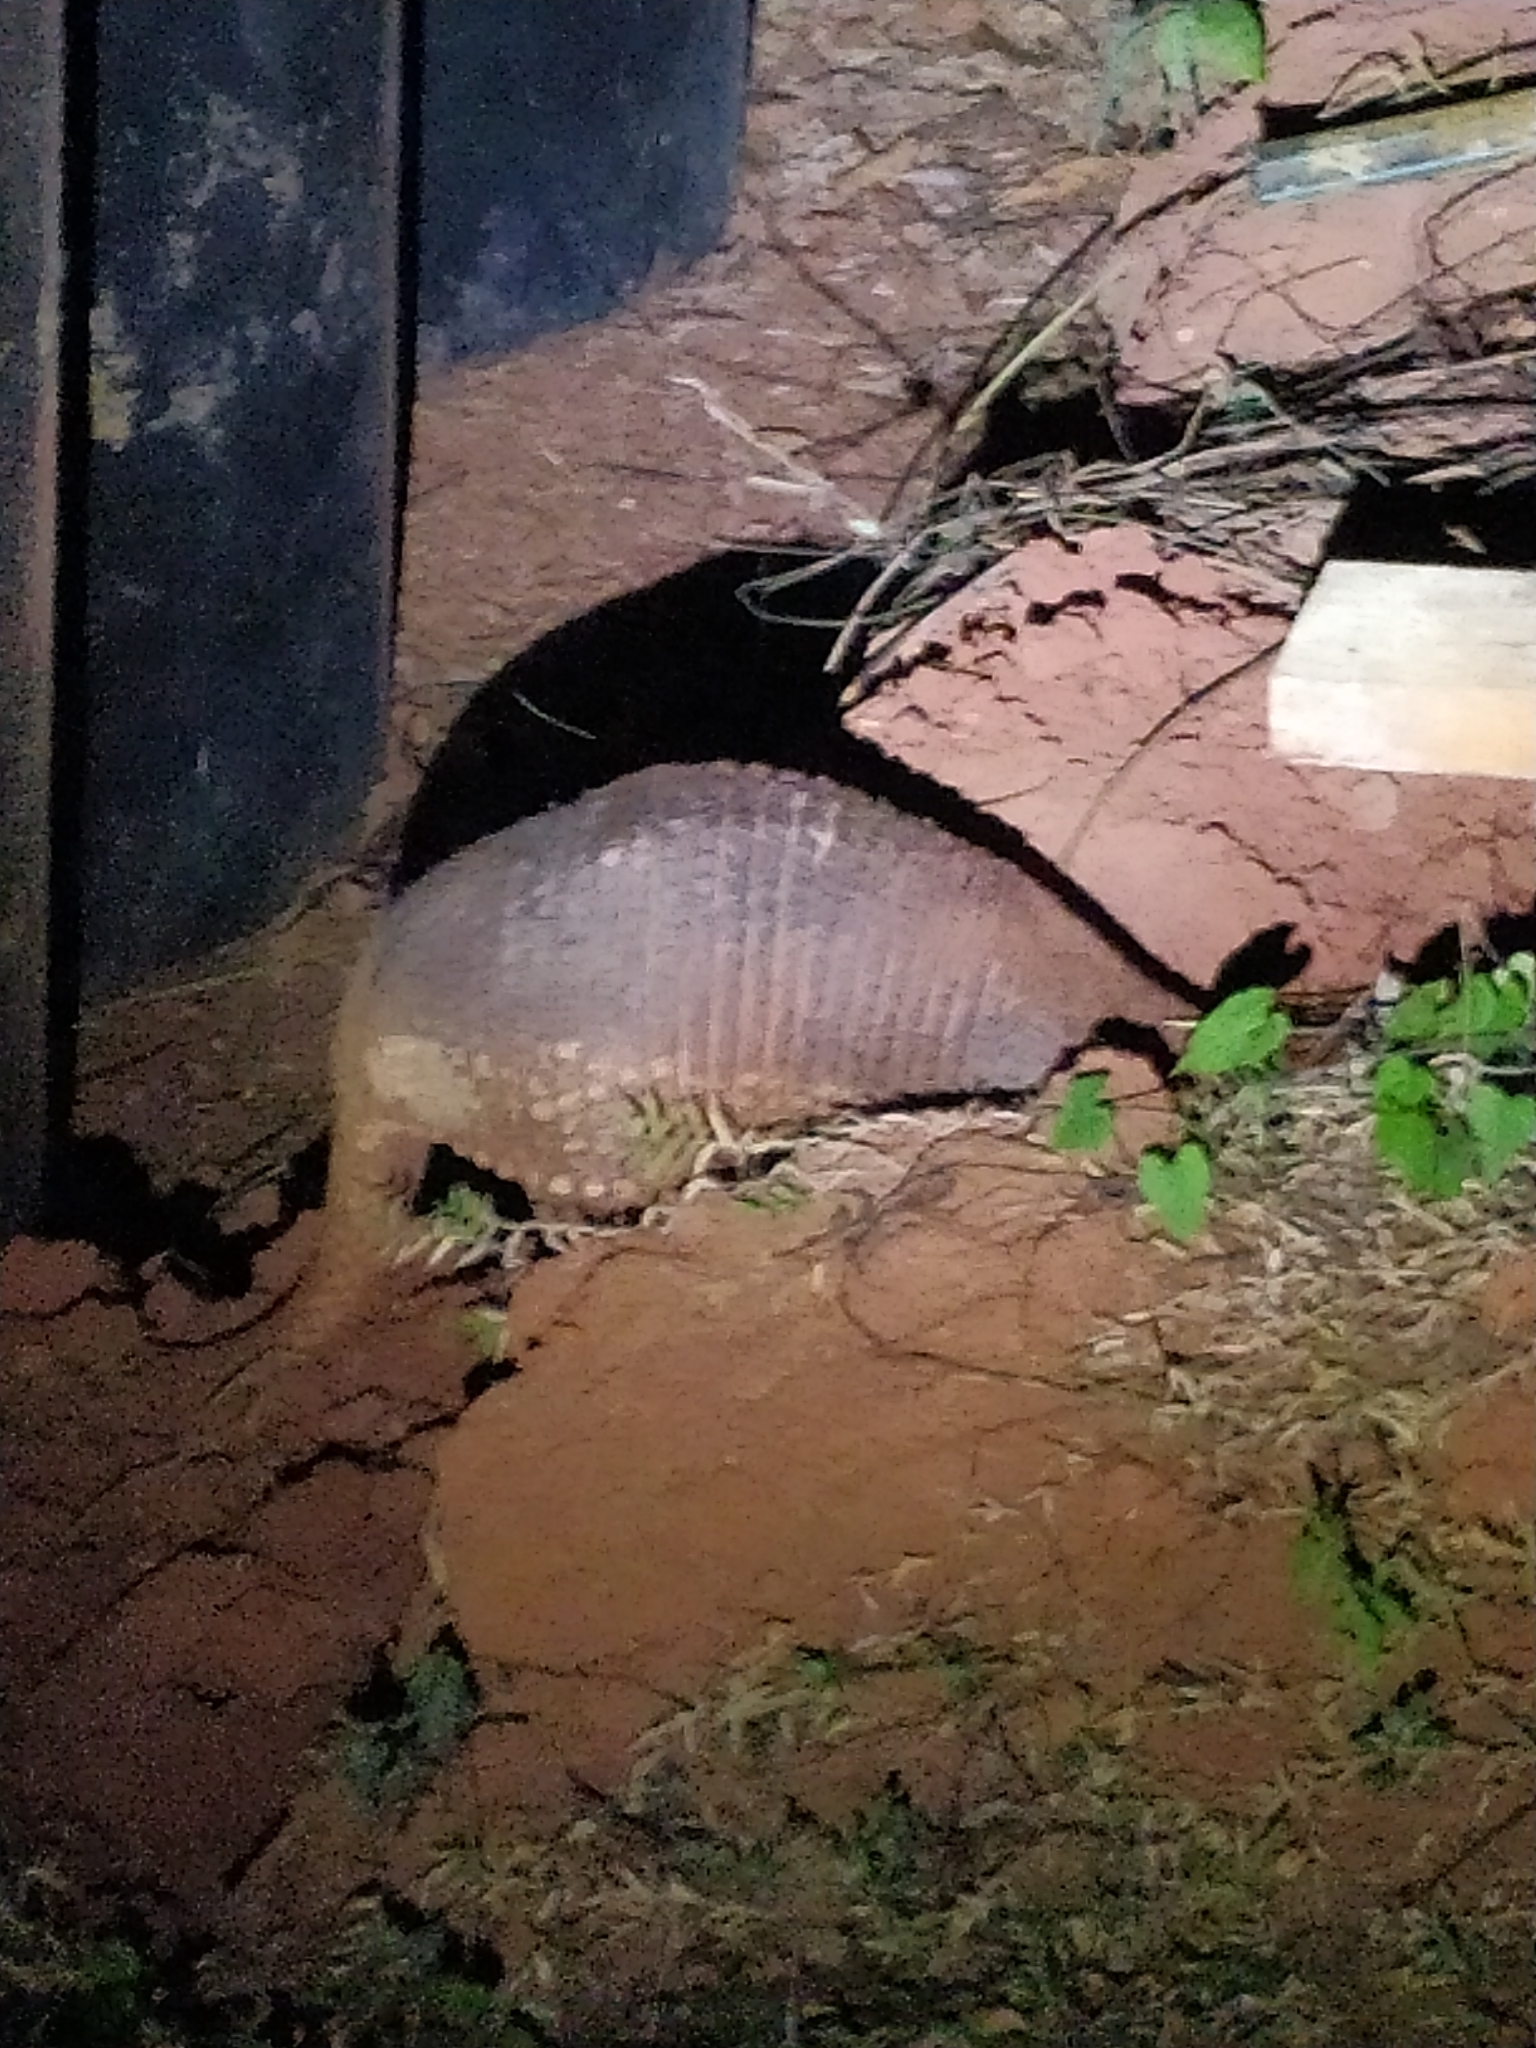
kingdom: Animalia
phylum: Chordata
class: Mammalia
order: Cingulata
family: Dasypodidae
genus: Priodontes
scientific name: Priodontes maximus
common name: Giant armadillo
